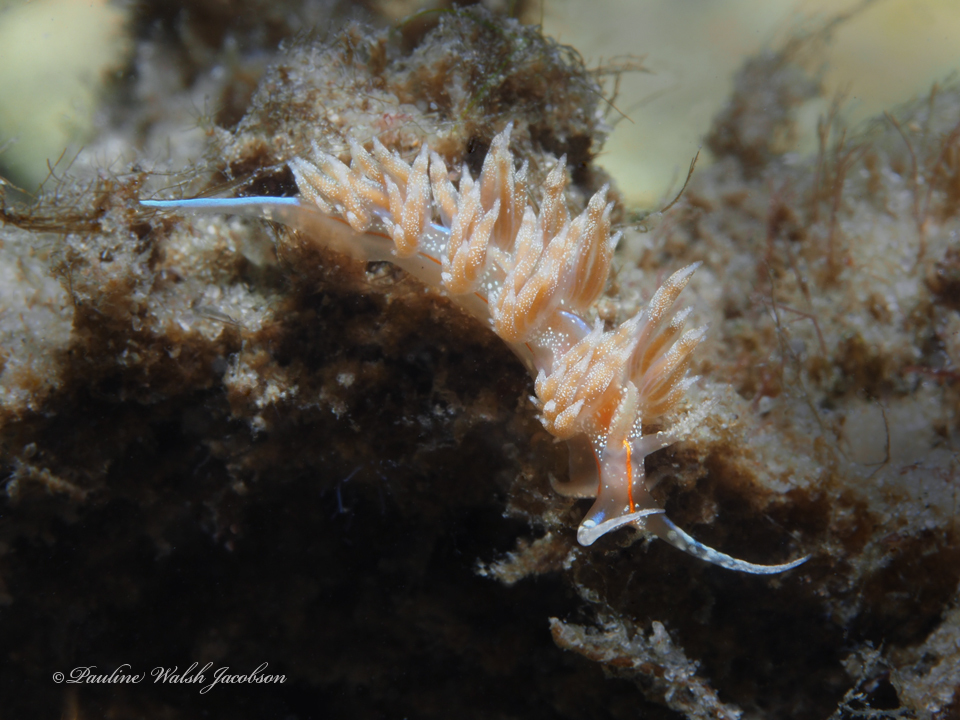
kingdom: Animalia
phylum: Mollusca
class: Gastropoda
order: Nudibranchia
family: Myrrhinidae
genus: Dondice
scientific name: Dondice juansanchezi
